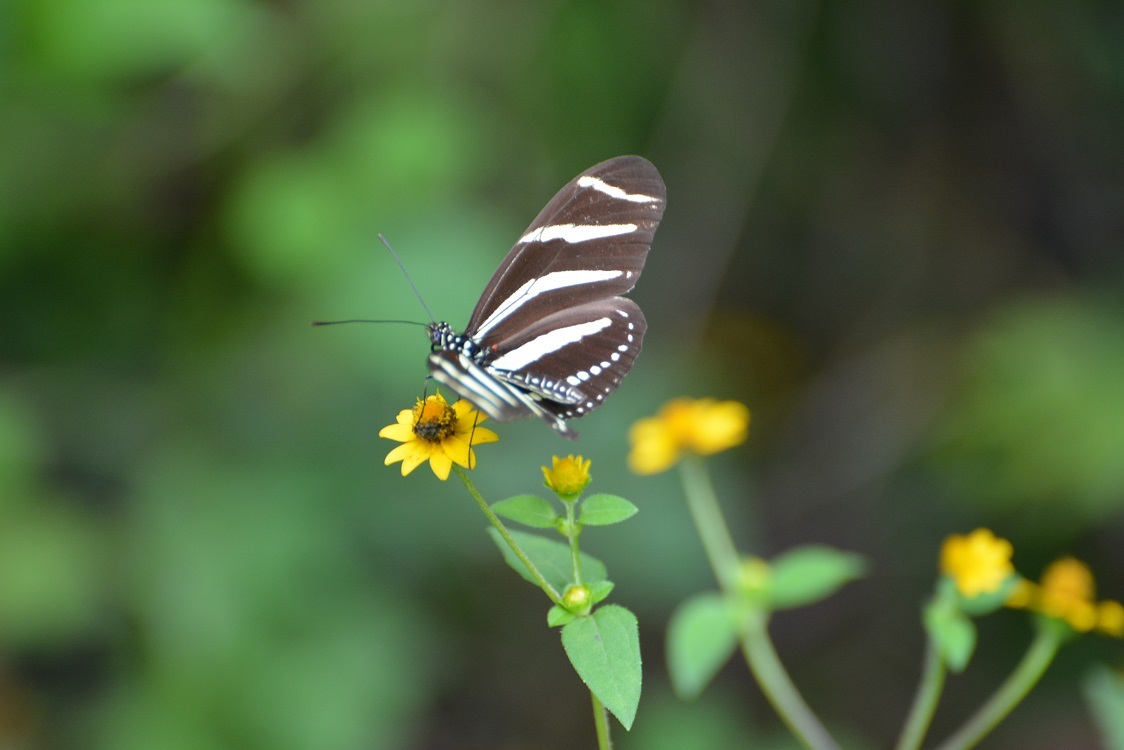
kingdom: Animalia
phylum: Arthropoda
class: Insecta
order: Lepidoptera
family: Nymphalidae
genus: Heliconius
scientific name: Heliconius charithonia
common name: Zebra long wing
